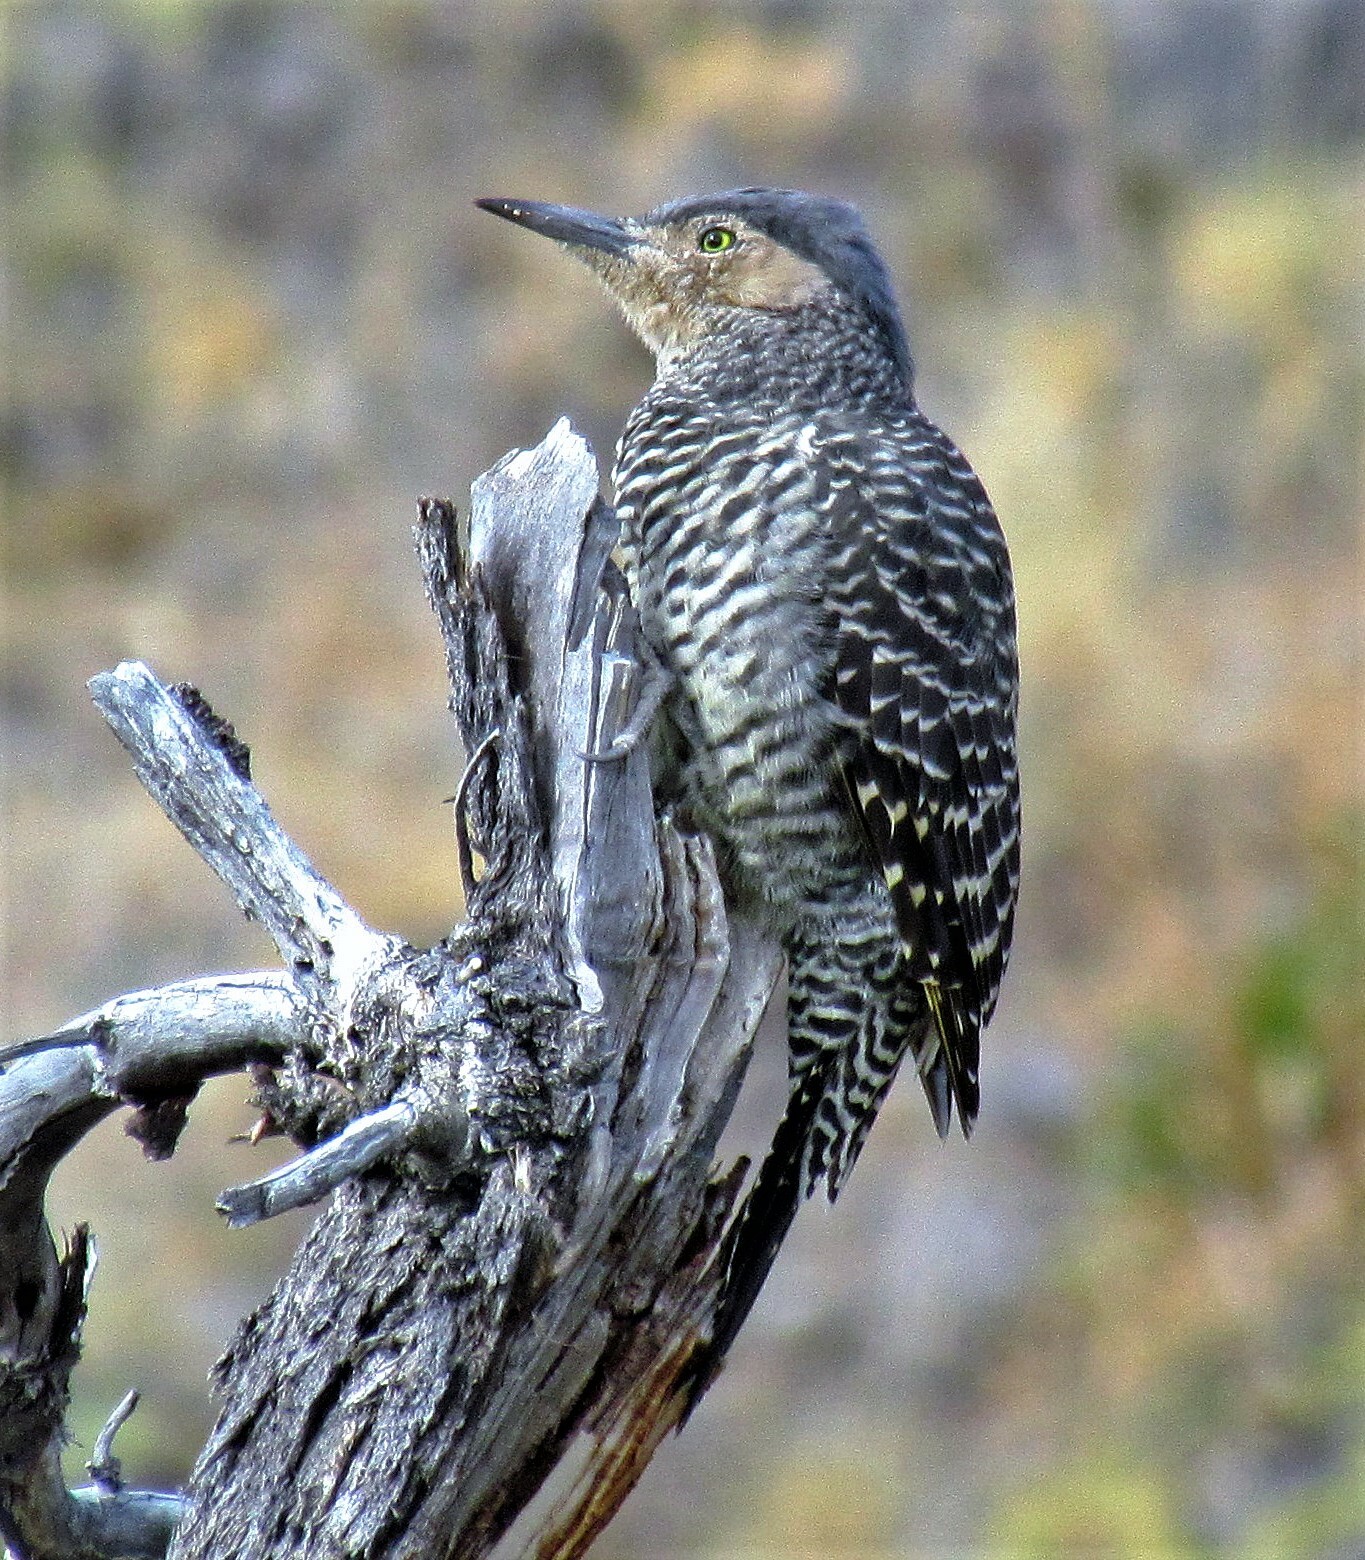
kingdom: Animalia
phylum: Chordata
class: Aves
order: Piciformes
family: Picidae
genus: Colaptes
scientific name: Colaptes pitius
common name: Chilean flicker
